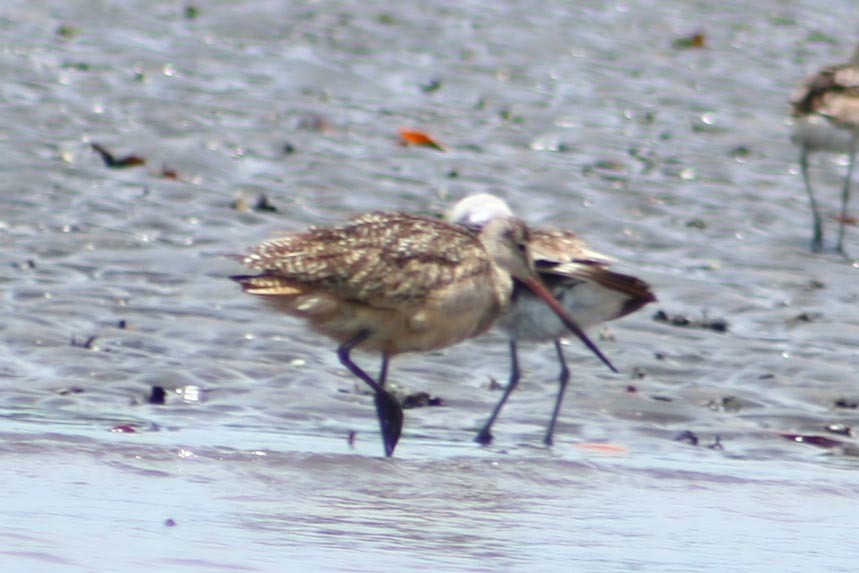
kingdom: Animalia
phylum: Chordata
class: Aves
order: Charadriiformes
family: Scolopacidae
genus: Limosa
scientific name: Limosa fedoa
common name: Marbled godwit
